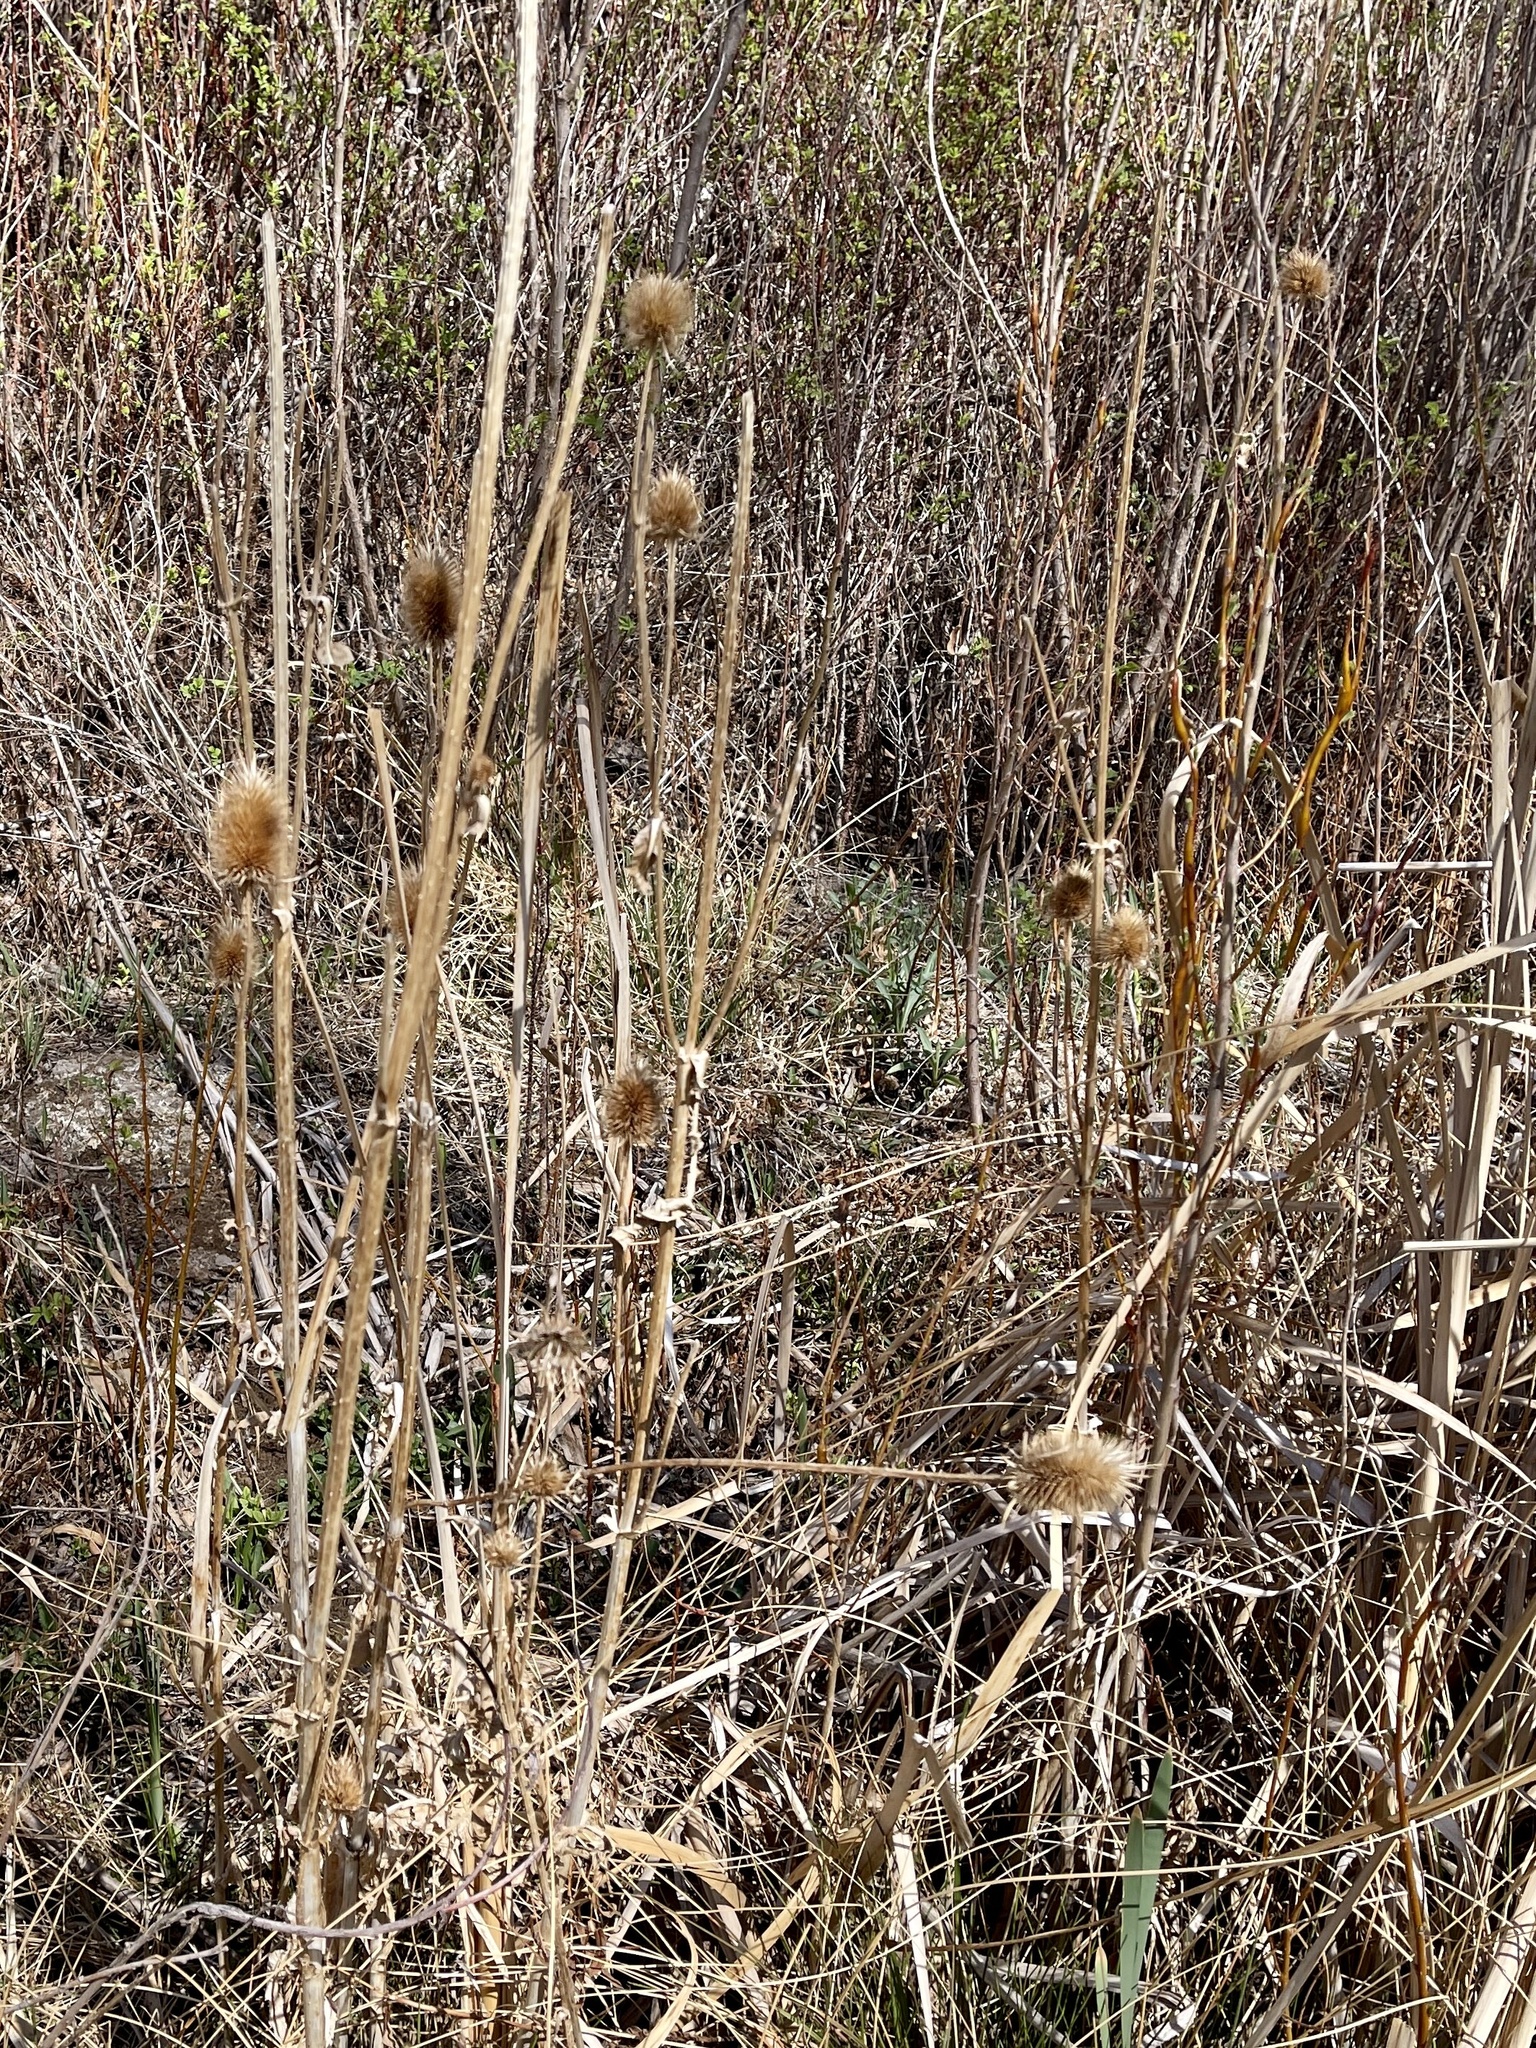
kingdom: Plantae
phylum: Tracheophyta
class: Magnoliopsida
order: Dipsacales
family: Caprifoliaceae
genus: Dipsacus
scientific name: Dipsacus fullonum
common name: Teasel
